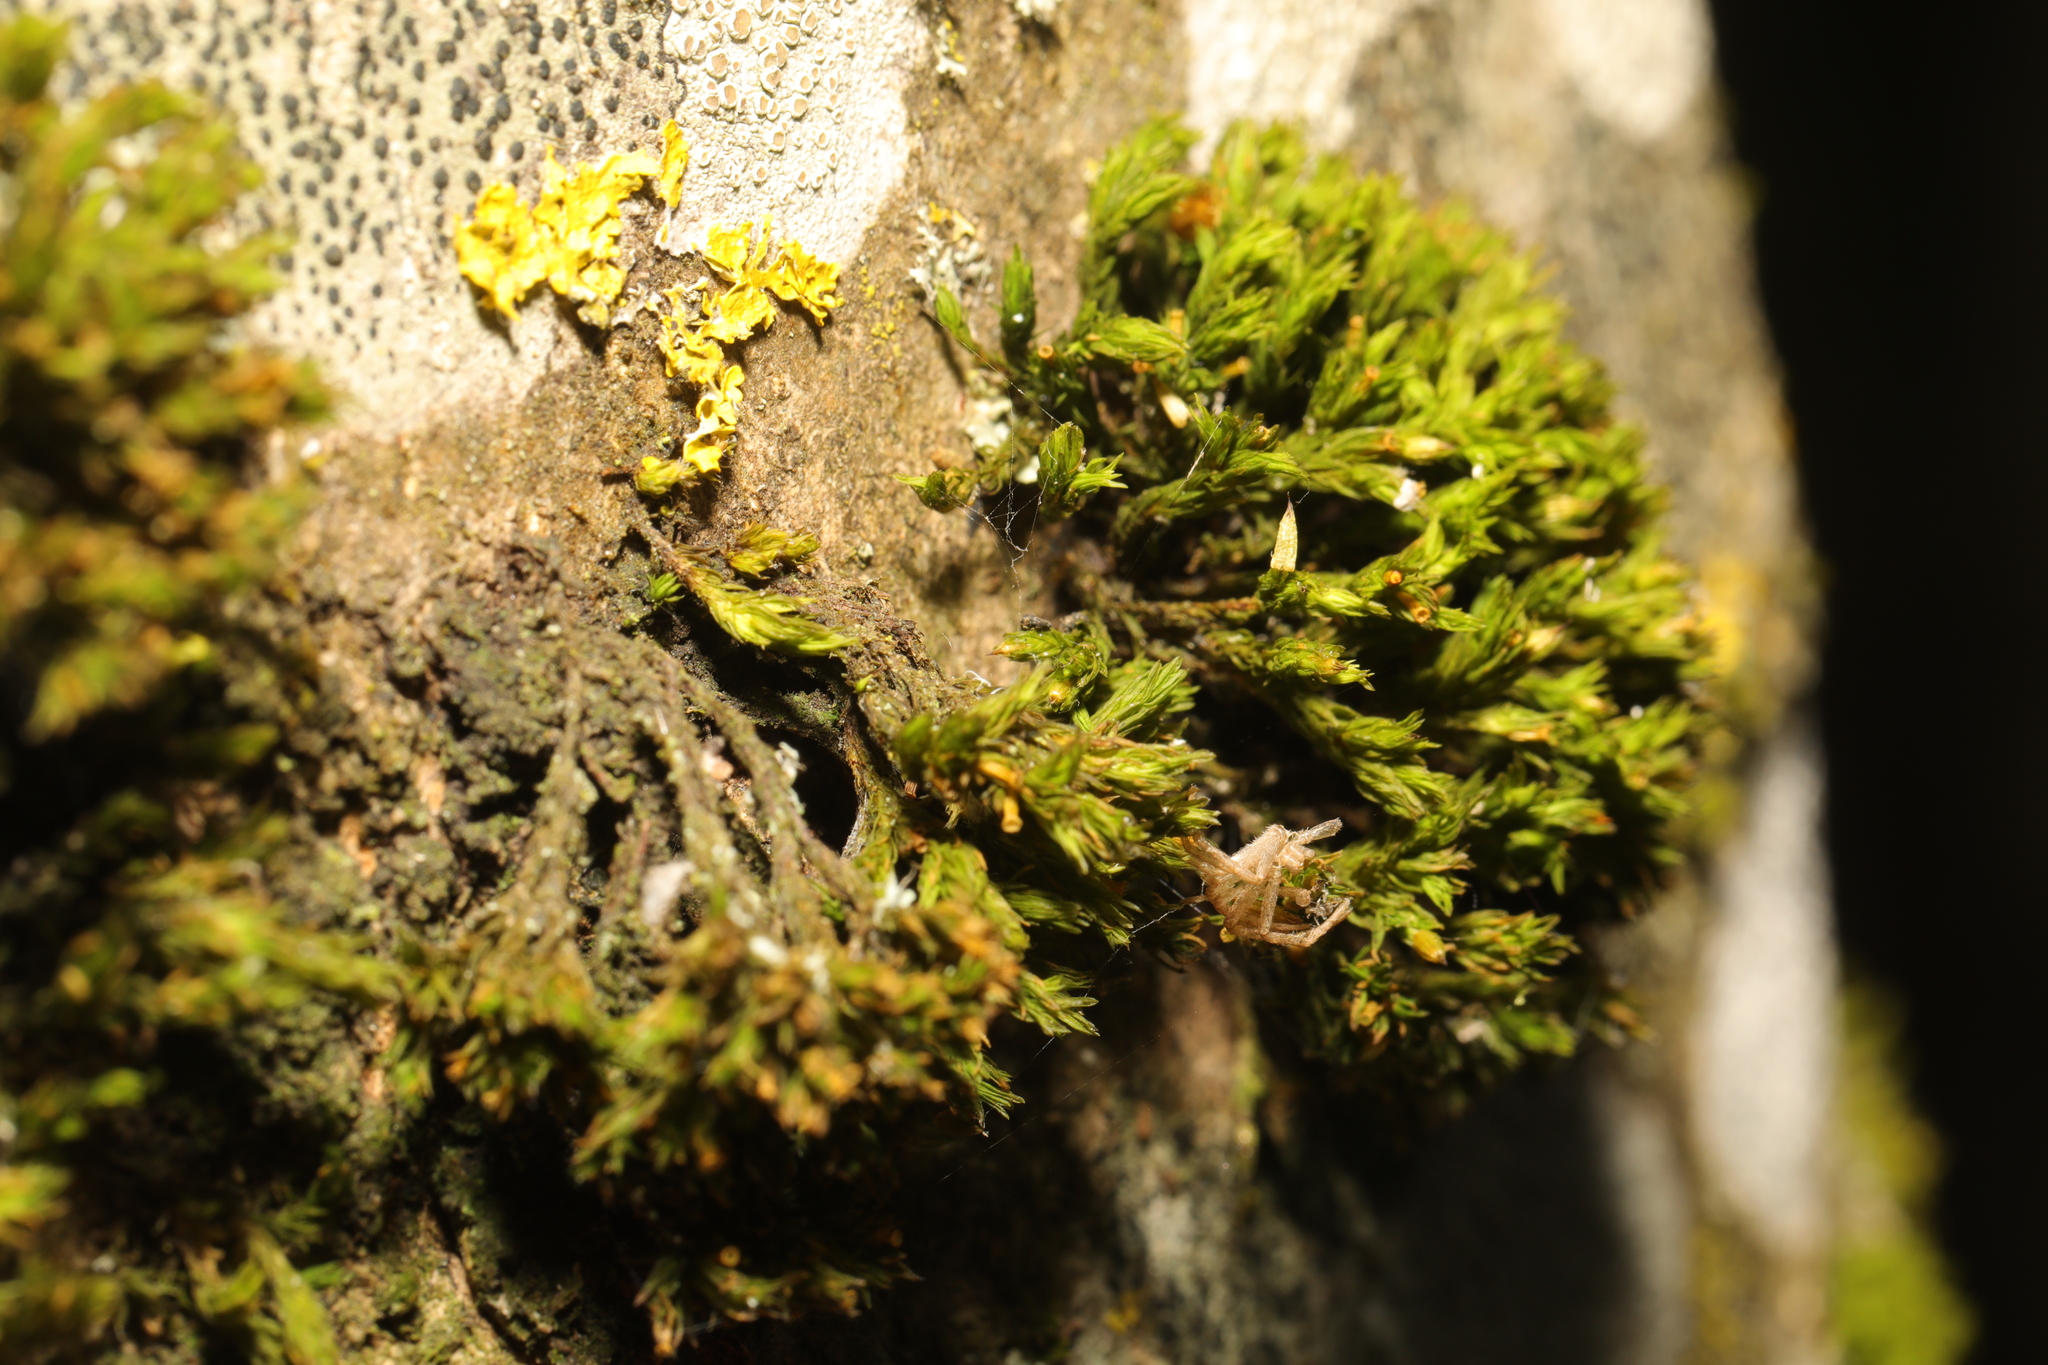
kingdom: Plantae
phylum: Bryophyta
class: Bryopsida
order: Orthotrichales
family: Orthotrichaceae
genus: Lewinskya
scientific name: Lewinskya affinis
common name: Wood bristle-moss
